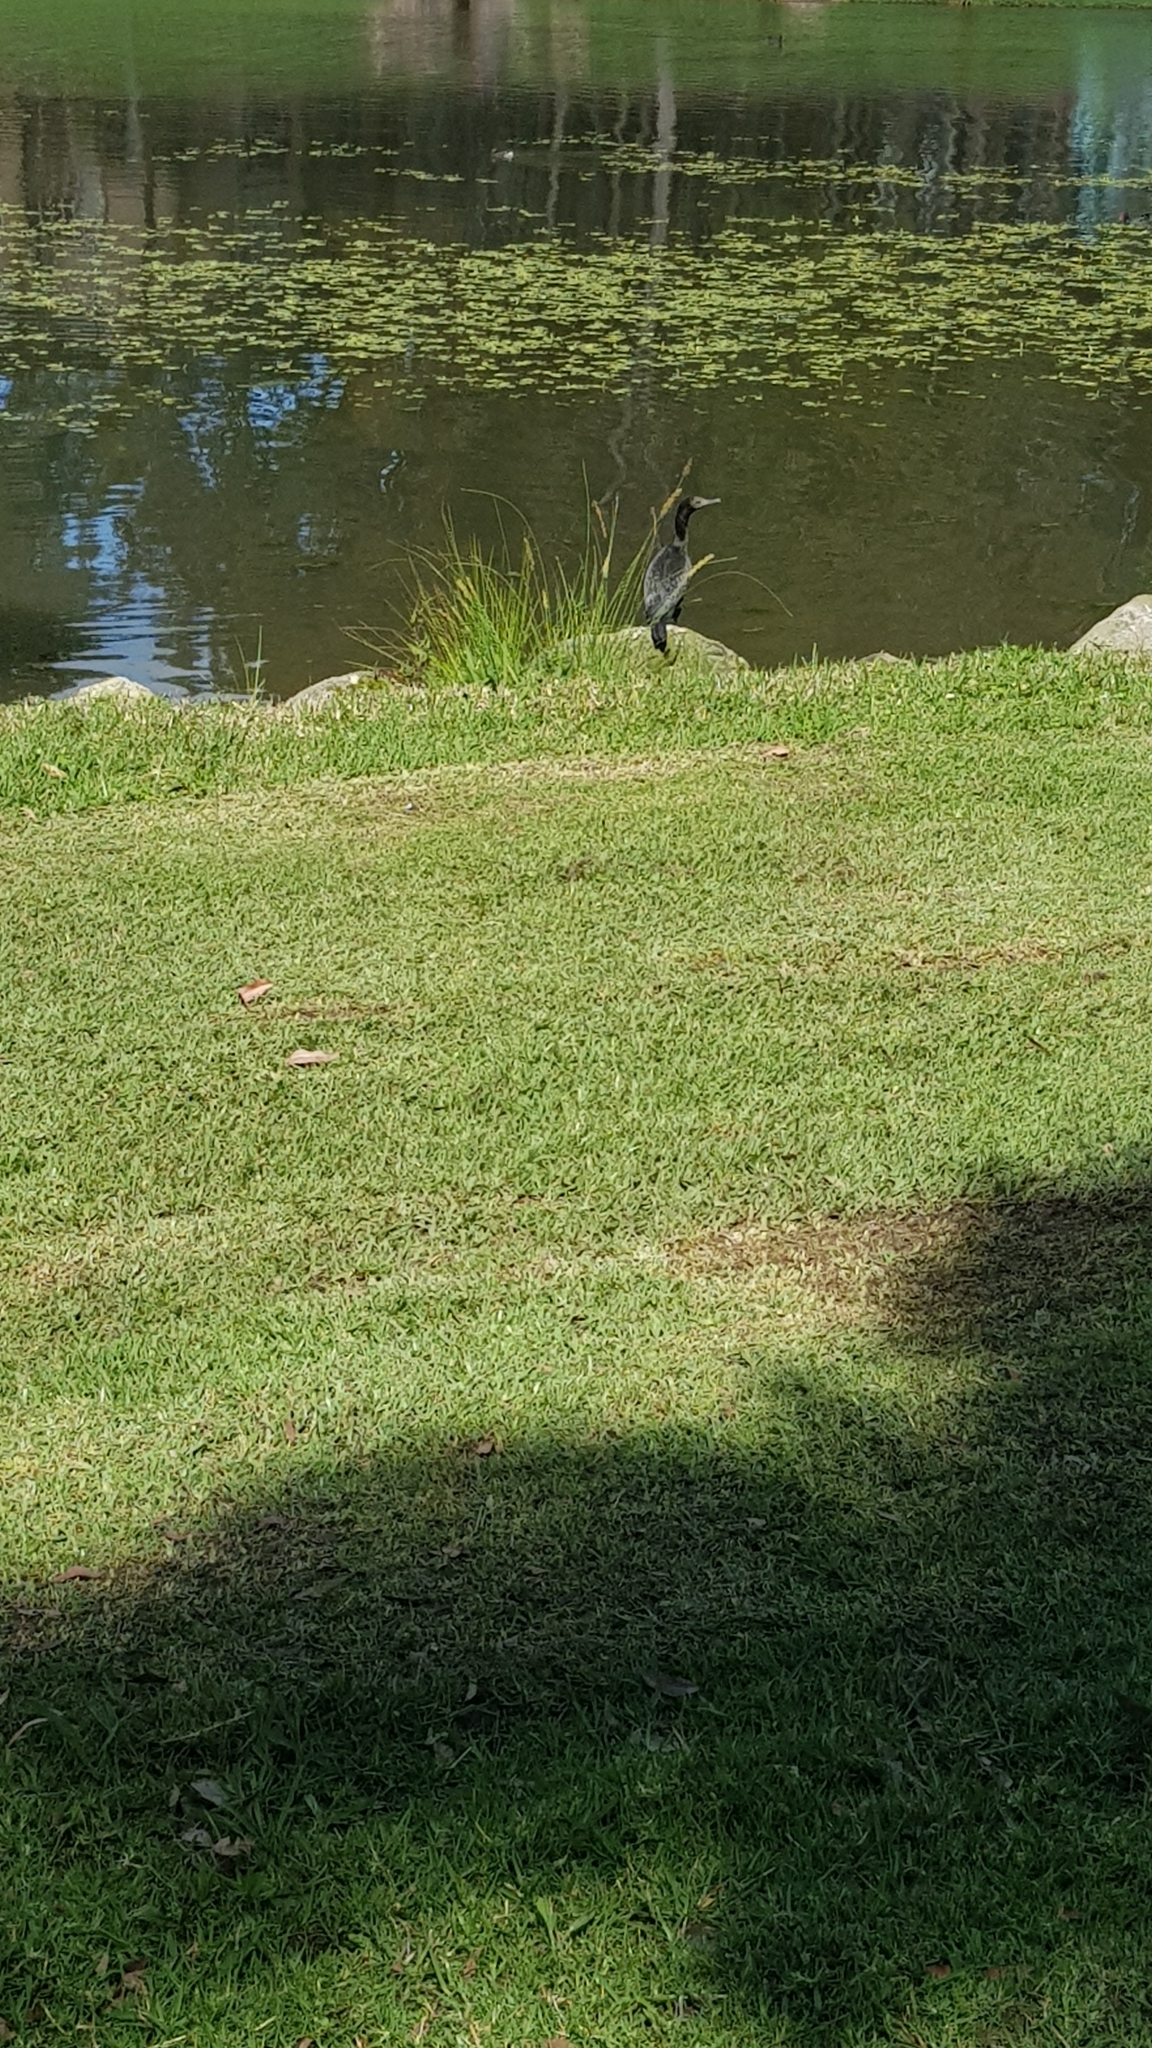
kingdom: Animalia
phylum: Chordata
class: Aves
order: Suliformes
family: Phalacrocoracidae
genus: Phalacrocorax
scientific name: Phalacrocorax sulcirostris
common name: Little black cormorant
